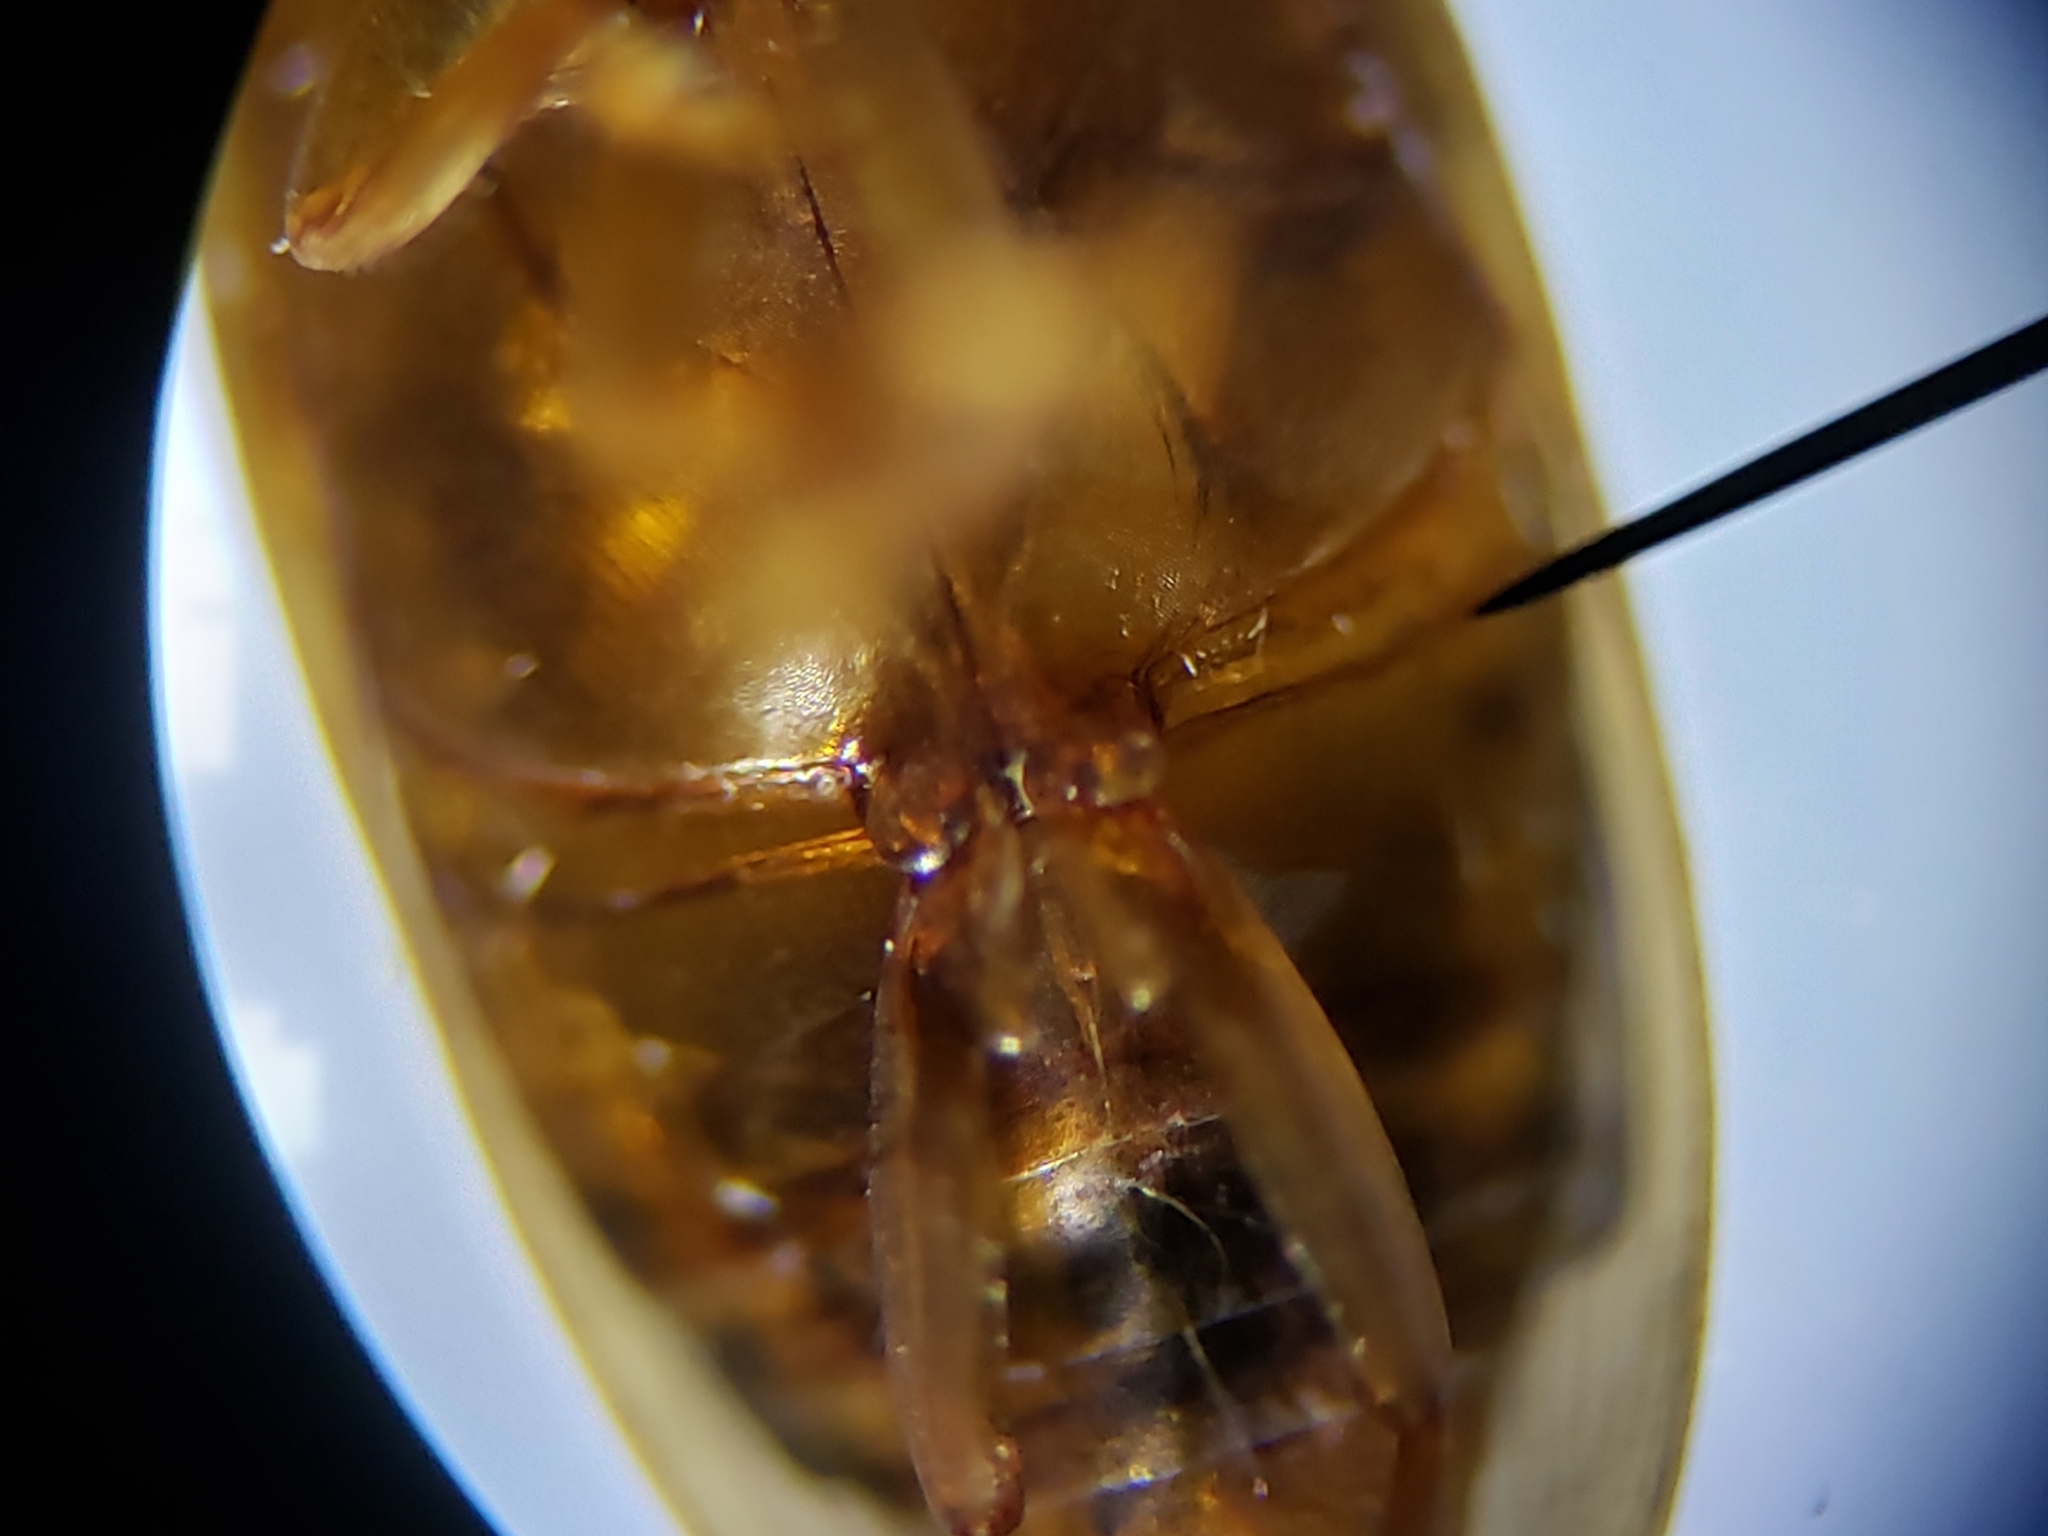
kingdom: Animalia
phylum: Arthropoda
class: Insecta
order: Coleoptera
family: Dytiscidae
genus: Copelatus
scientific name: Copelatus caelatipennis
